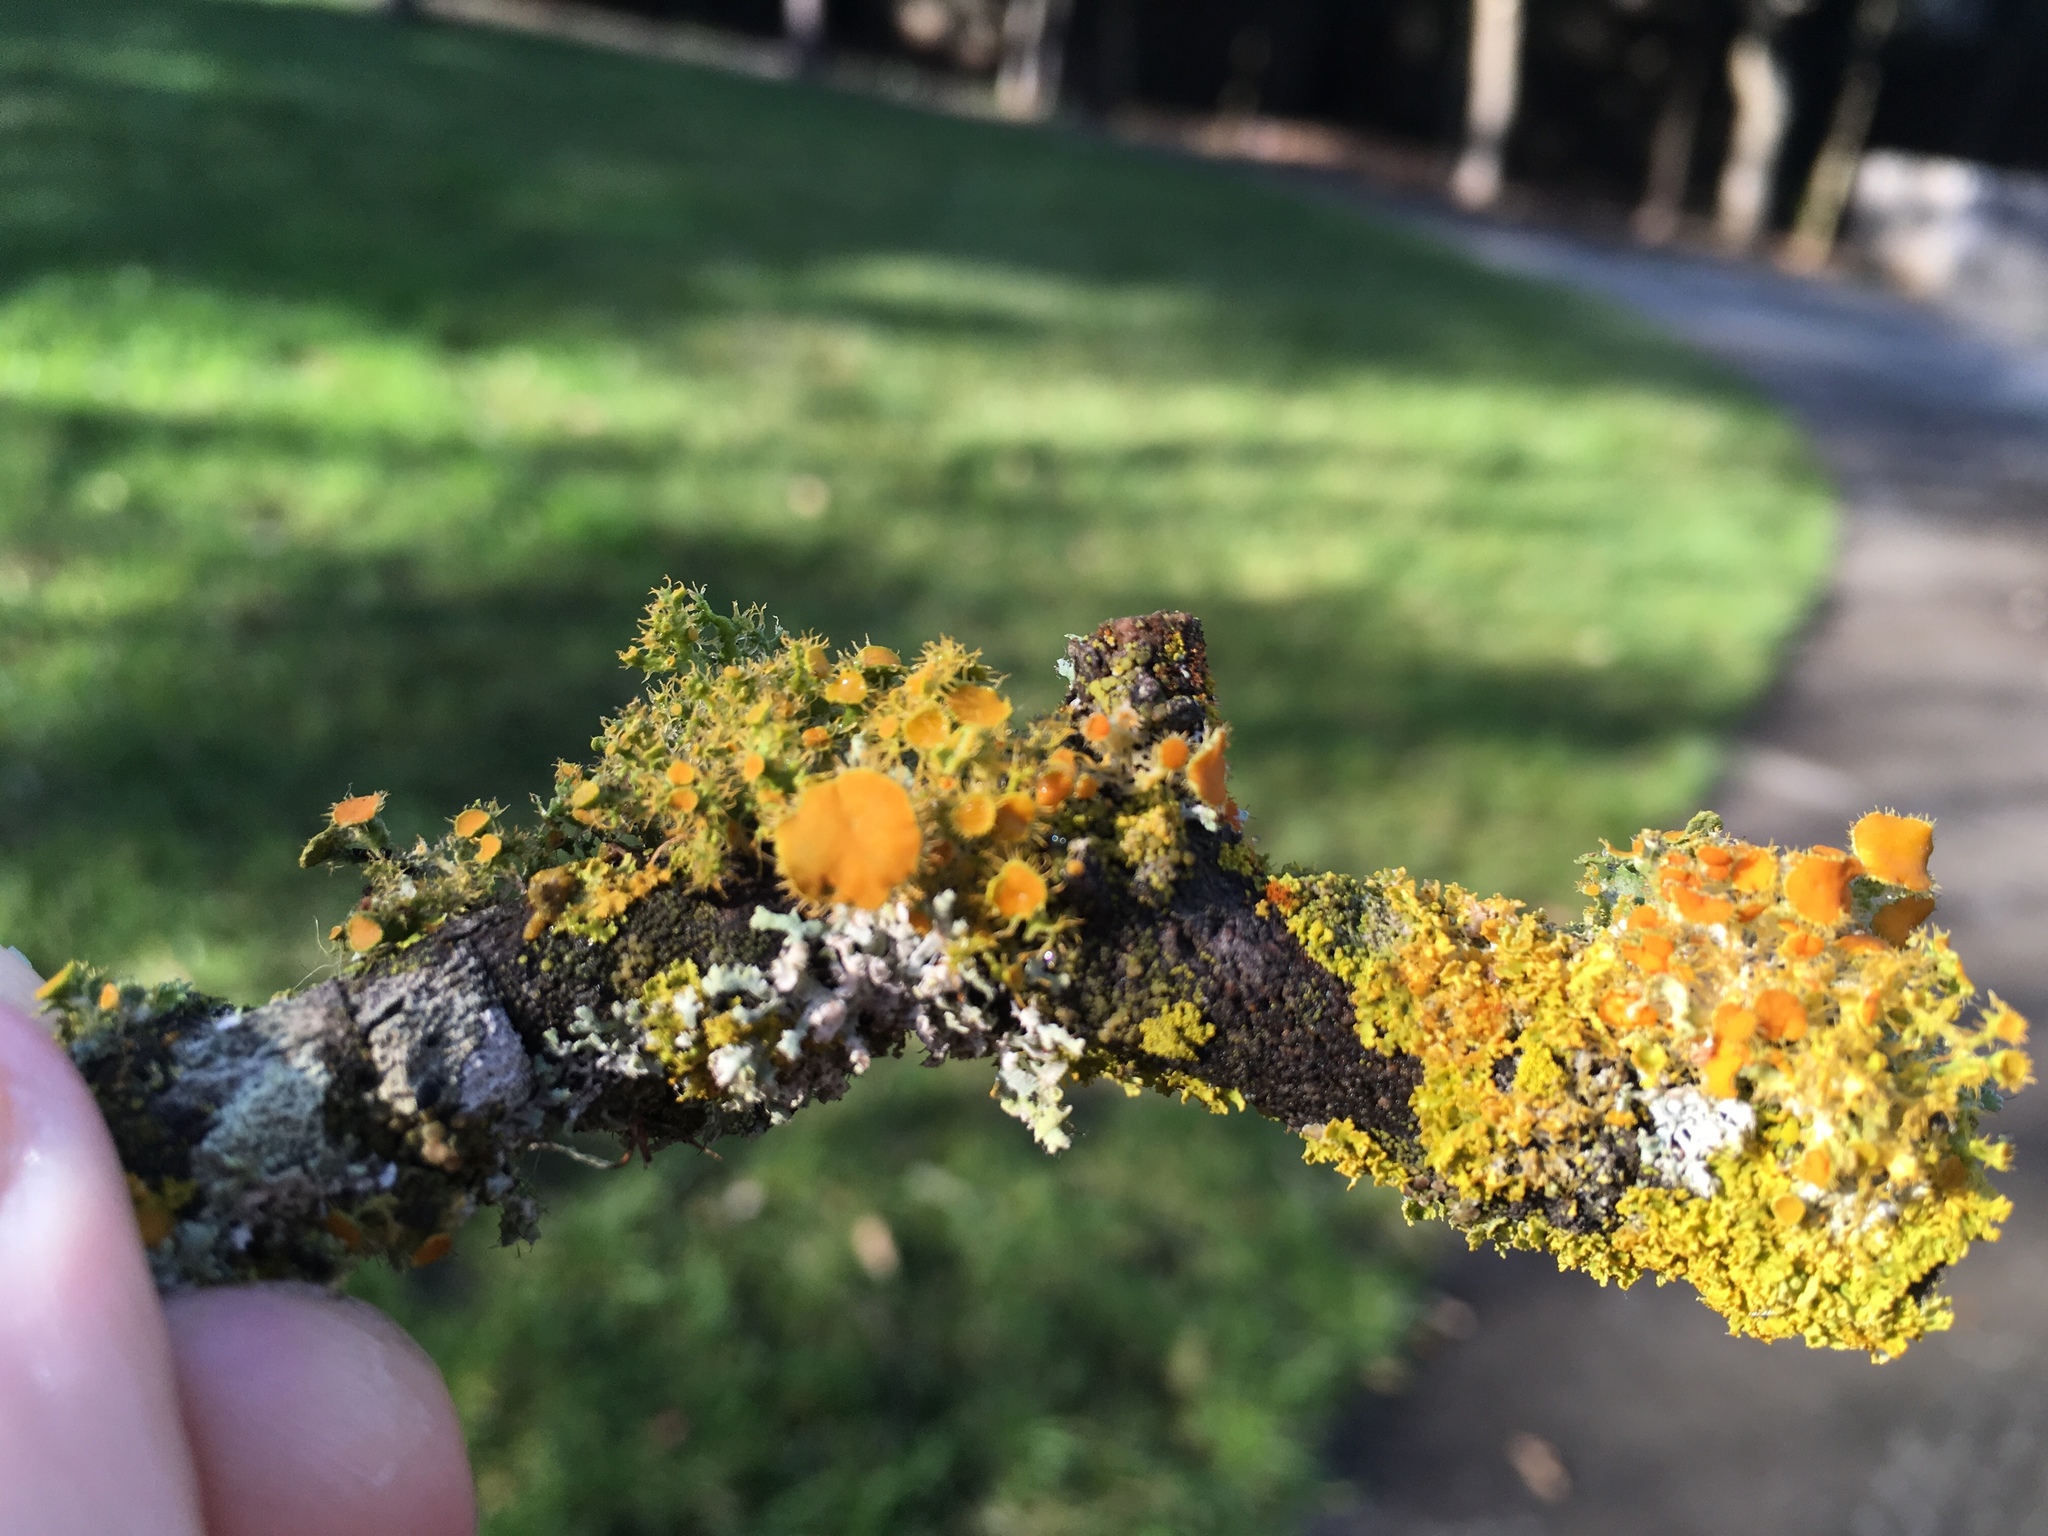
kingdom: Fungi
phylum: Ascomycota
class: Lecanoromycetes
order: Teloschistales
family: Teloschistaceae
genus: Niorma
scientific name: Niorma chrysophthalma
